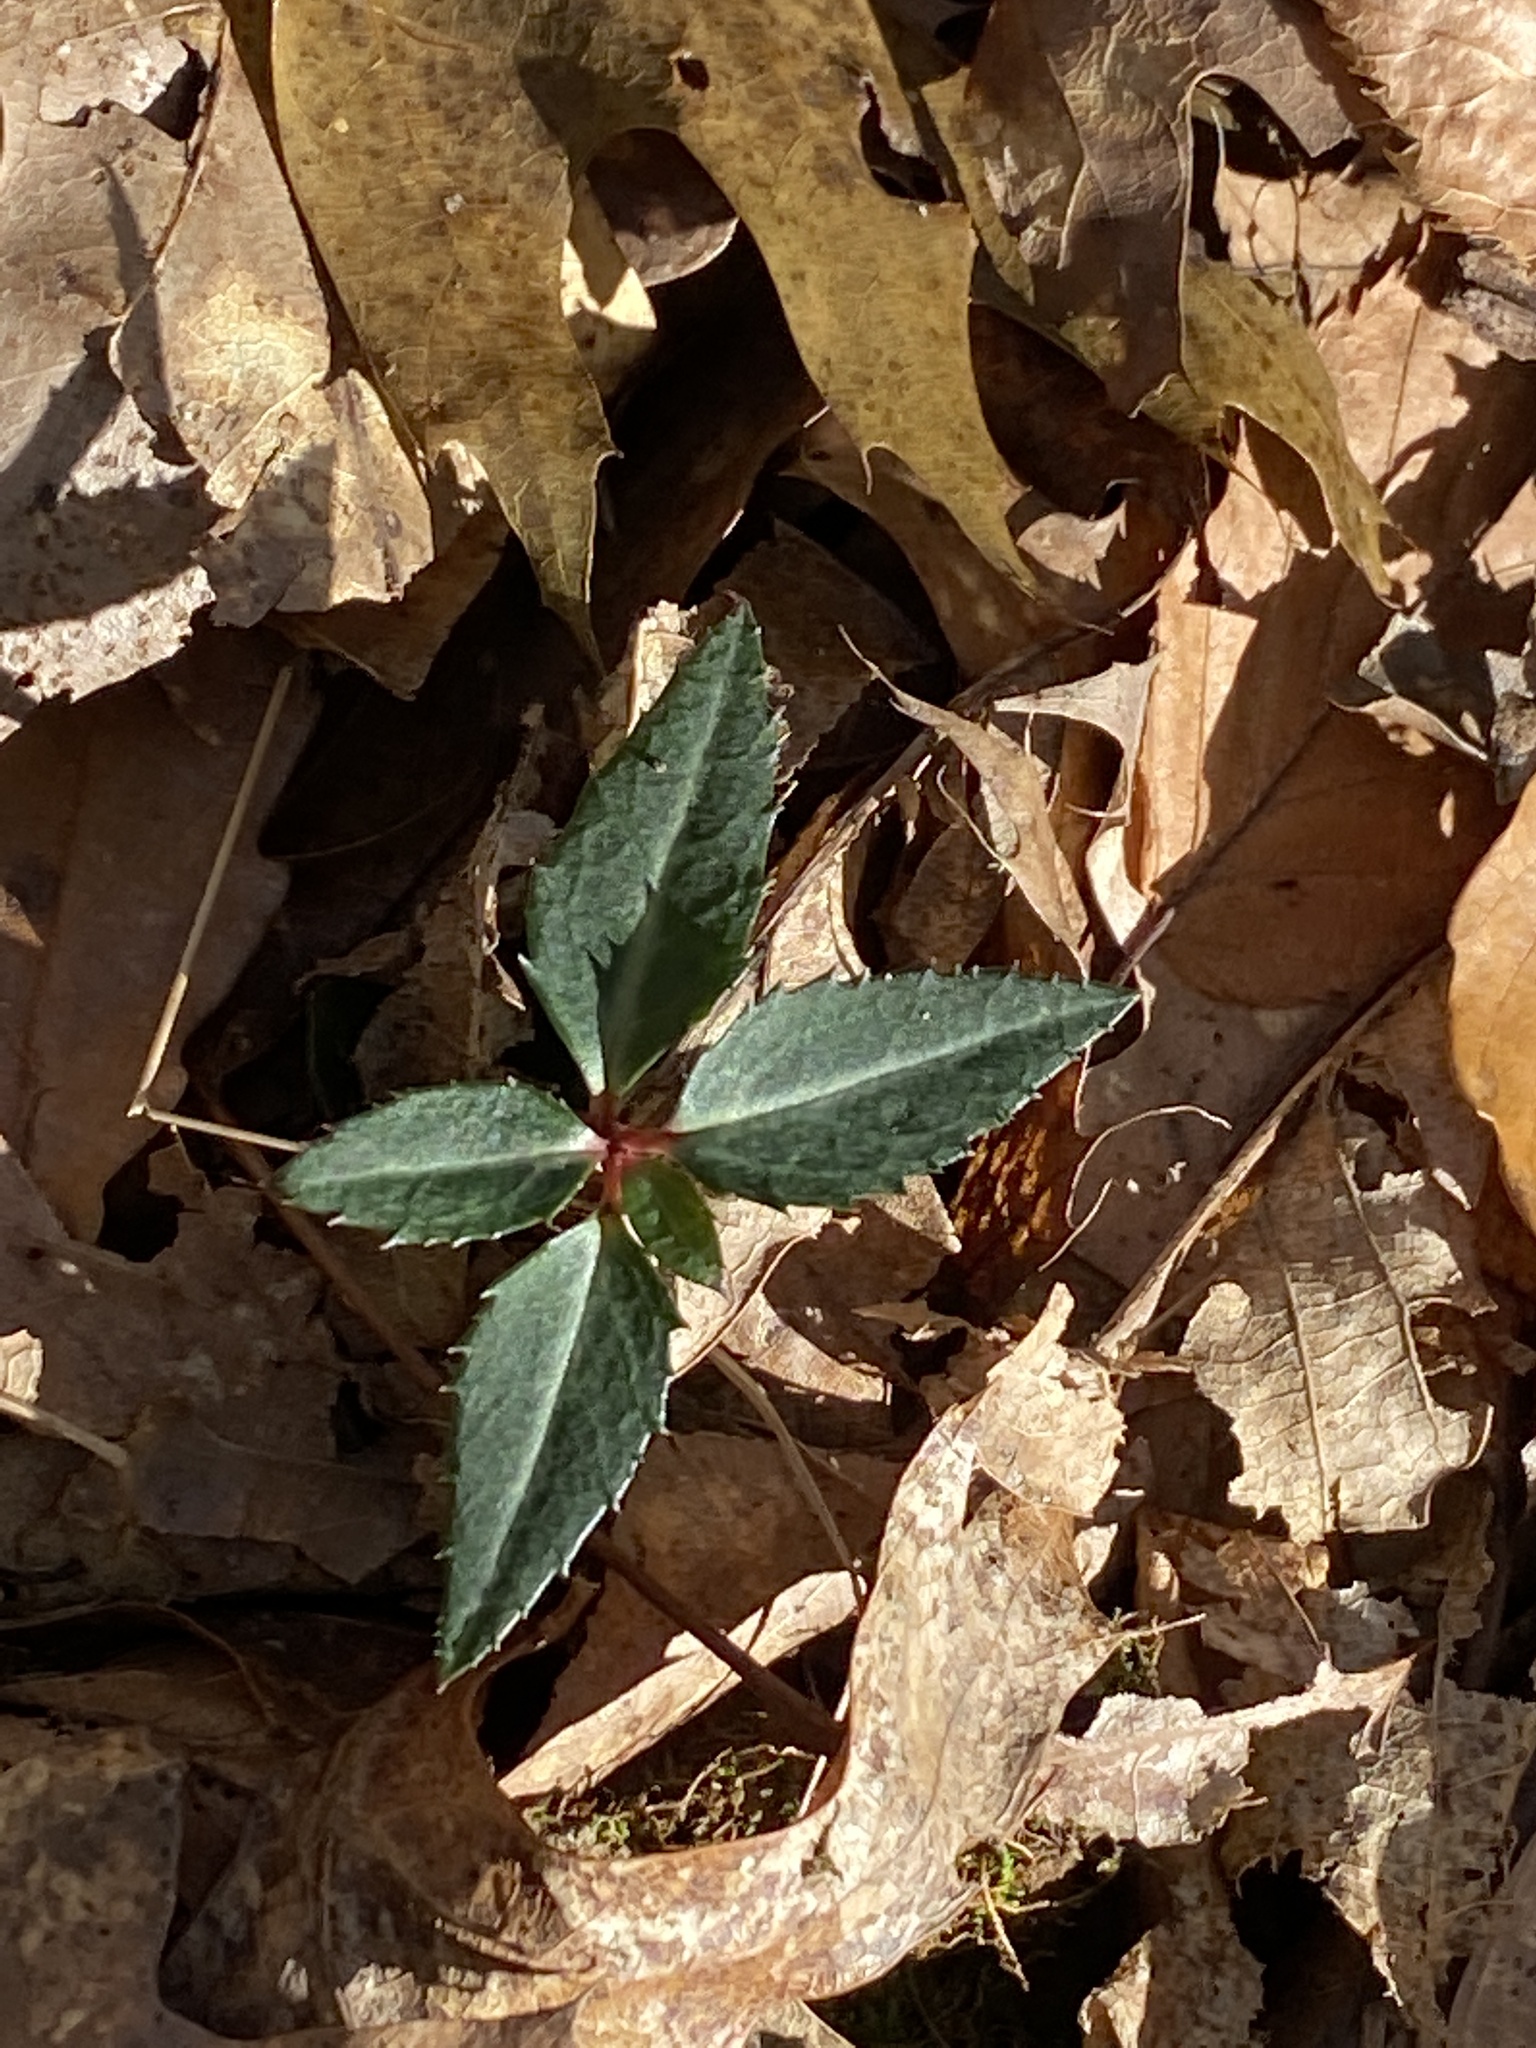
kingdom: Plantae
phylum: Tracheophyta
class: Magnoliopsida
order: Ericales
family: Ericaceae
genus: Chimaphila
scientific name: Chimaphila maculata
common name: Spotted pipsissewa
